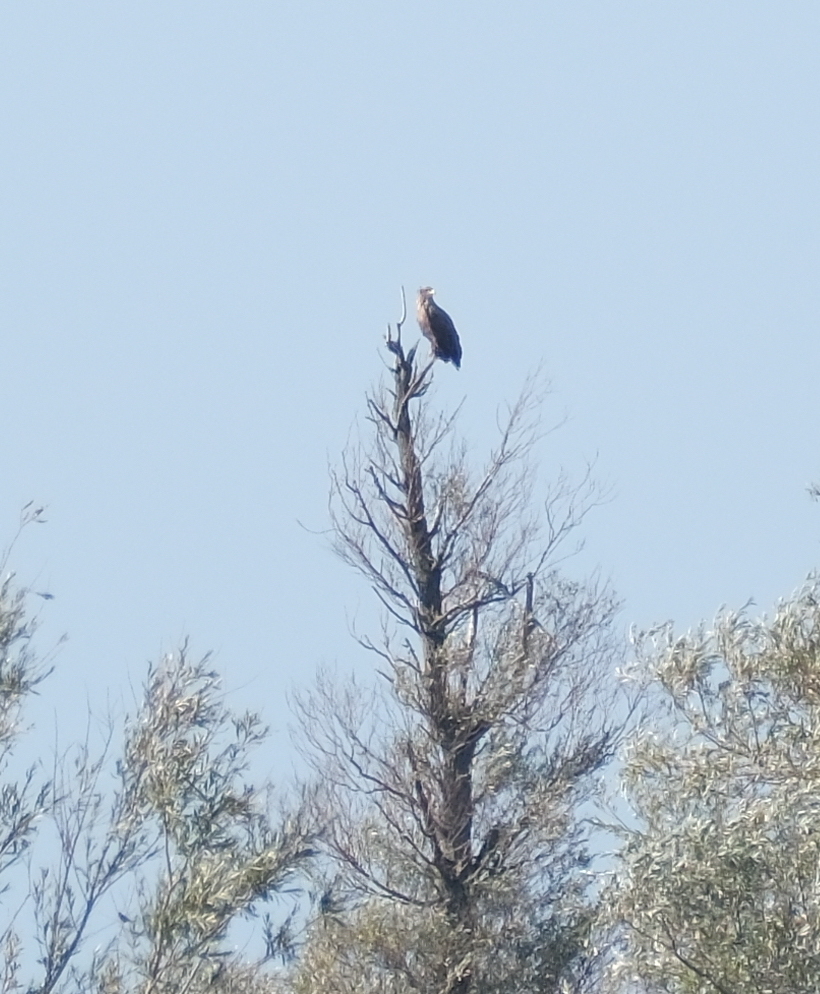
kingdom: Animalia
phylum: Chordata
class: Aves
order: Accipitriformes
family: Accipitridae
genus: Haliaeetus
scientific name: Haliaeetus albicilla
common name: White-tailed eagle
